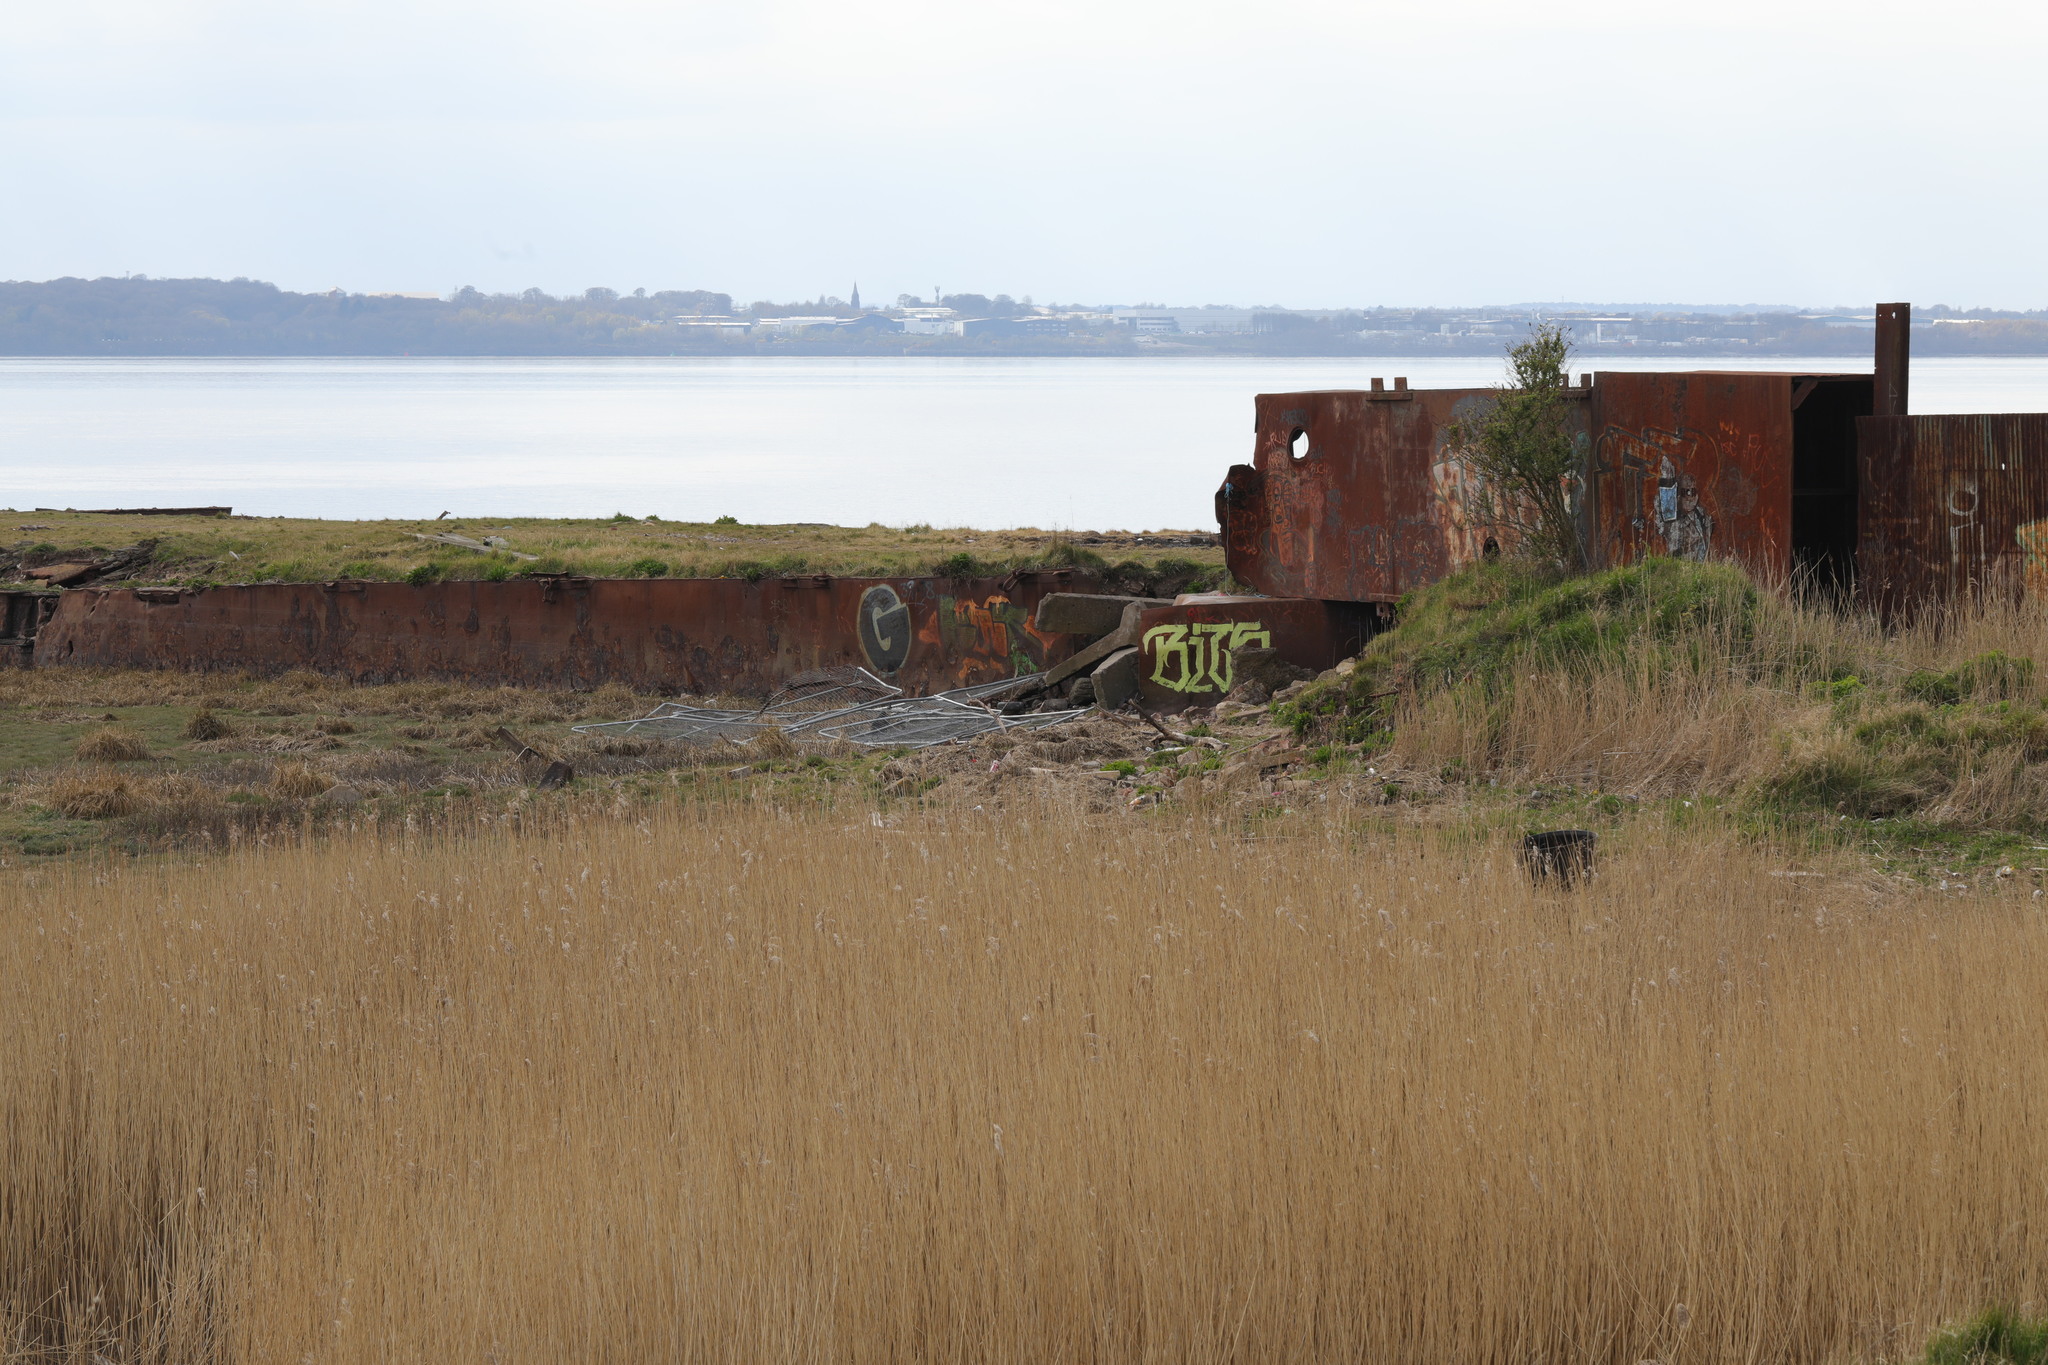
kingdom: Plantae
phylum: Tracheophyta
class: Liliopsida
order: Poales
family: Poaceae
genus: Phragmites
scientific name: Phragmites australis
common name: Common reed
